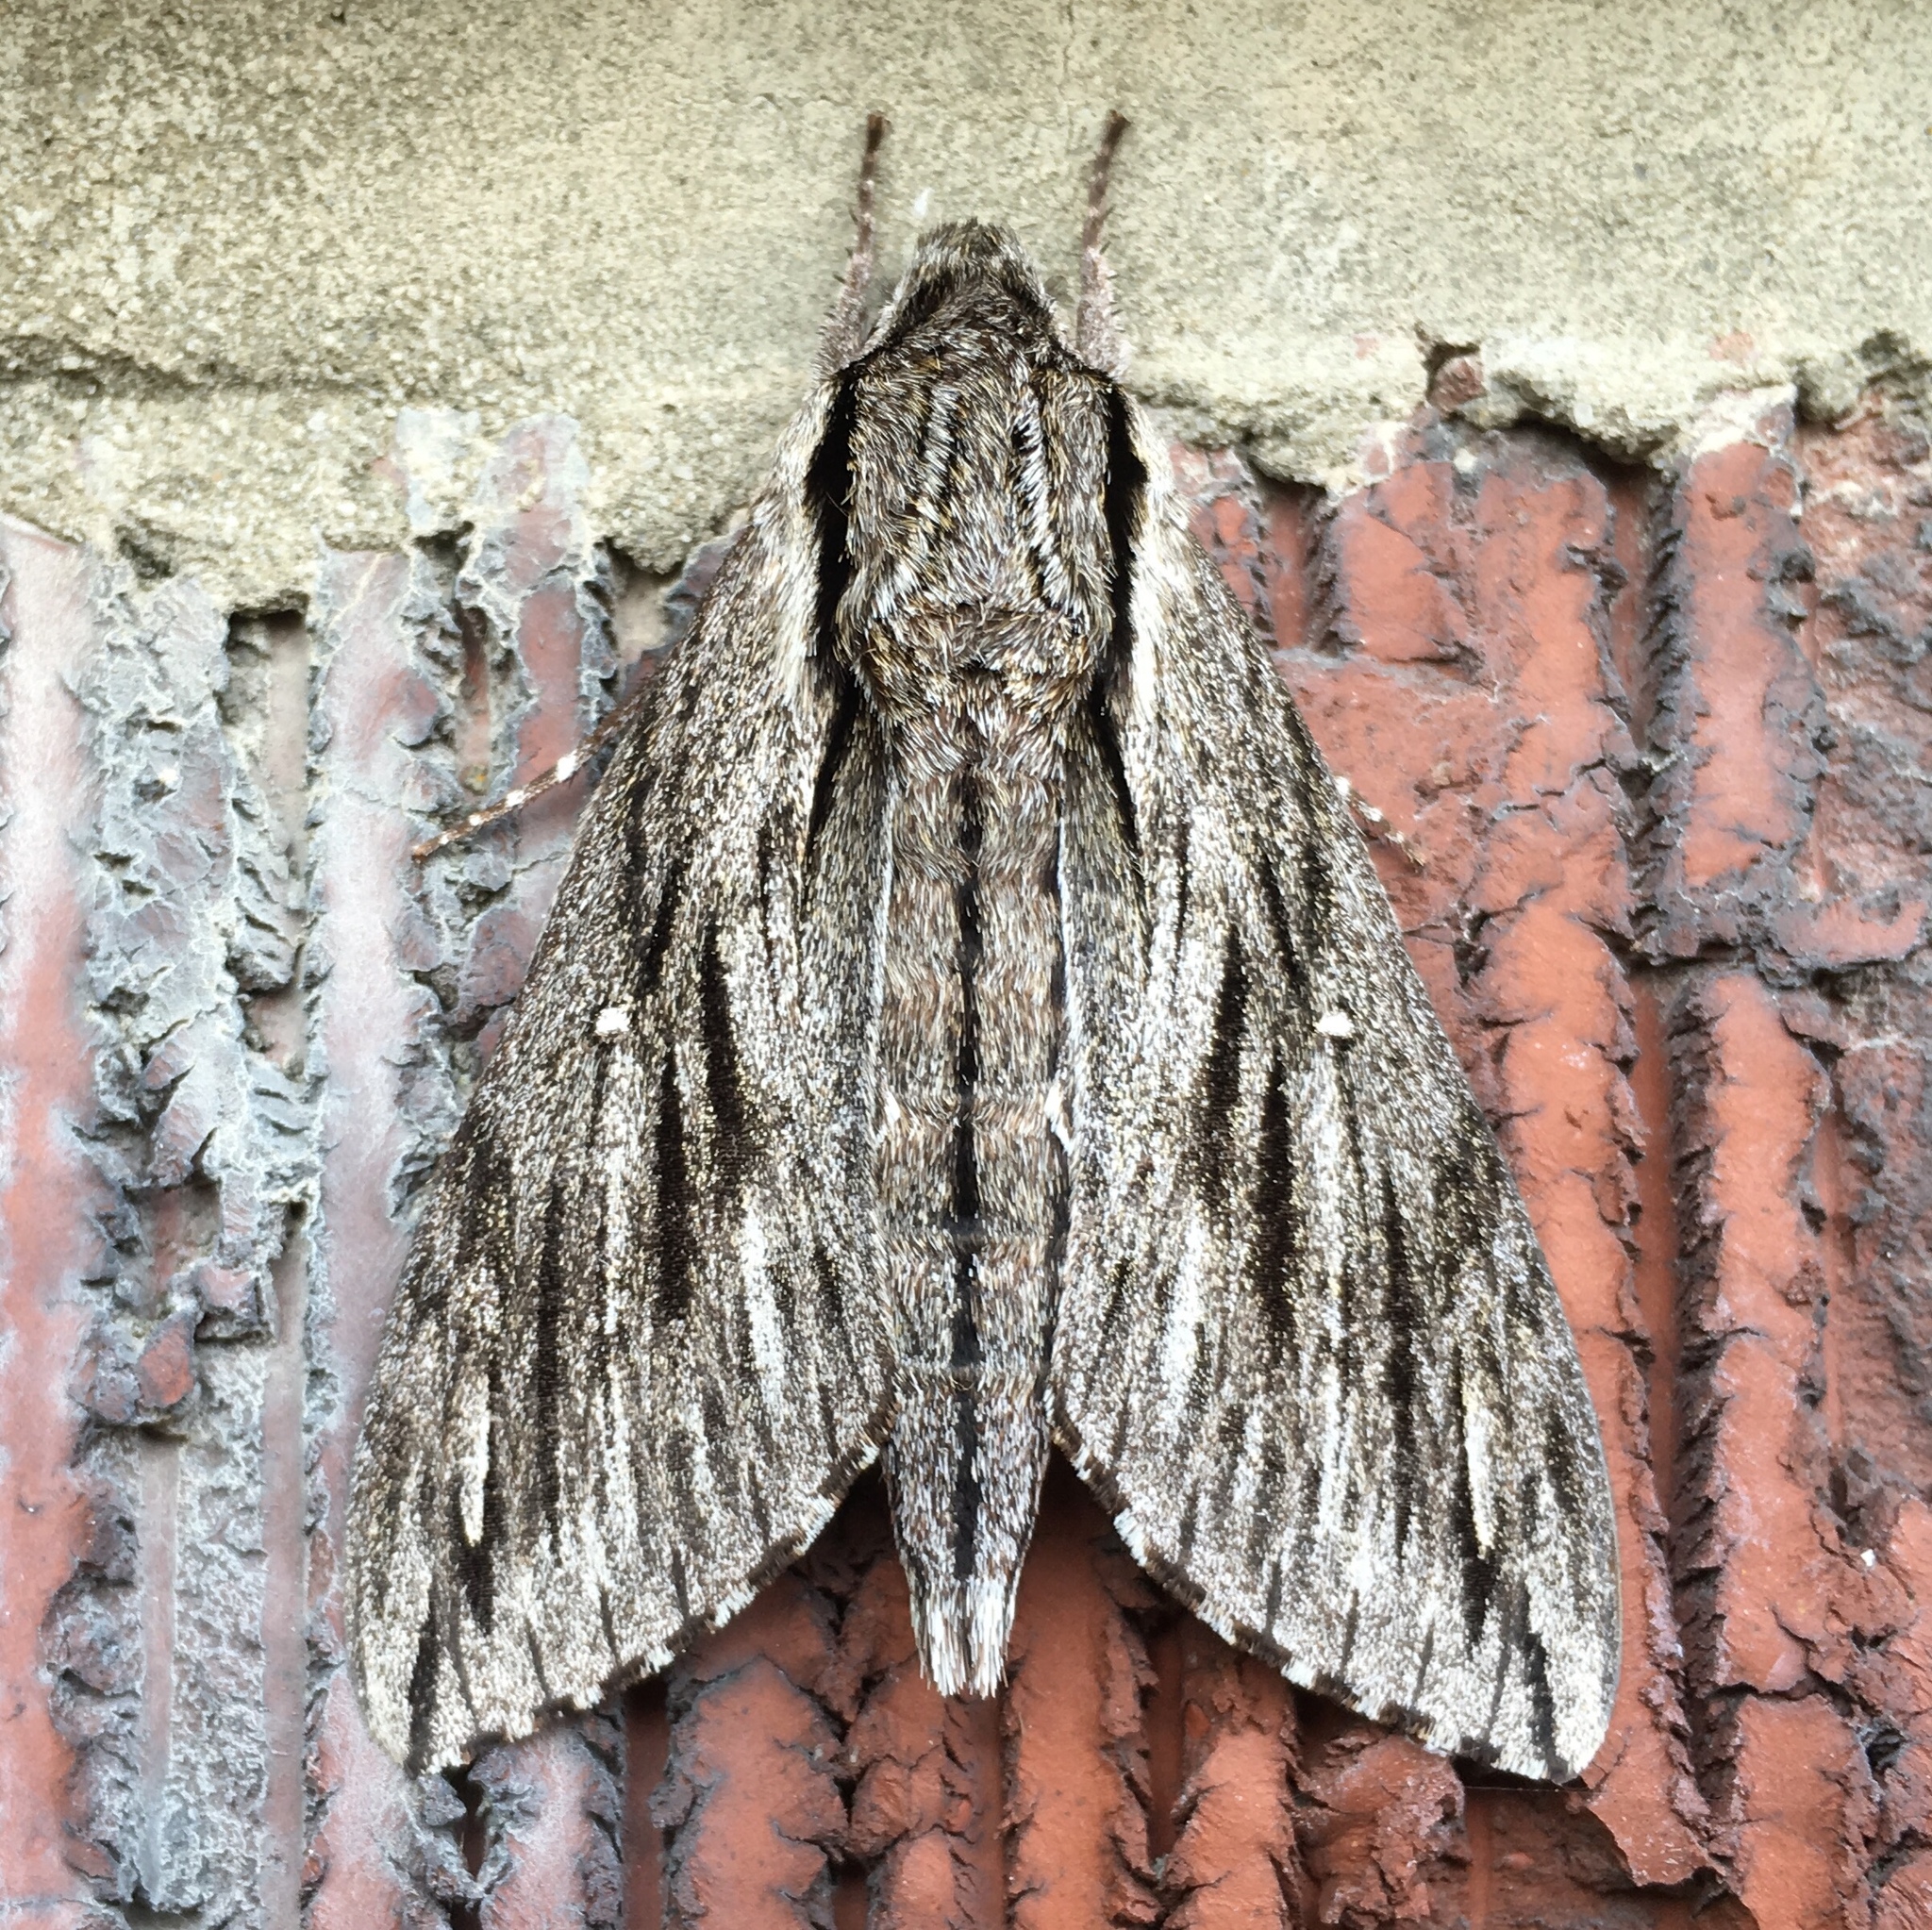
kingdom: Animalia
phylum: Arthropoda
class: Insecta
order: Lepidoptera
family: Sphingidae
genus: Paratrea
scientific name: Paratrea plebeja
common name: Plebian sphinx
